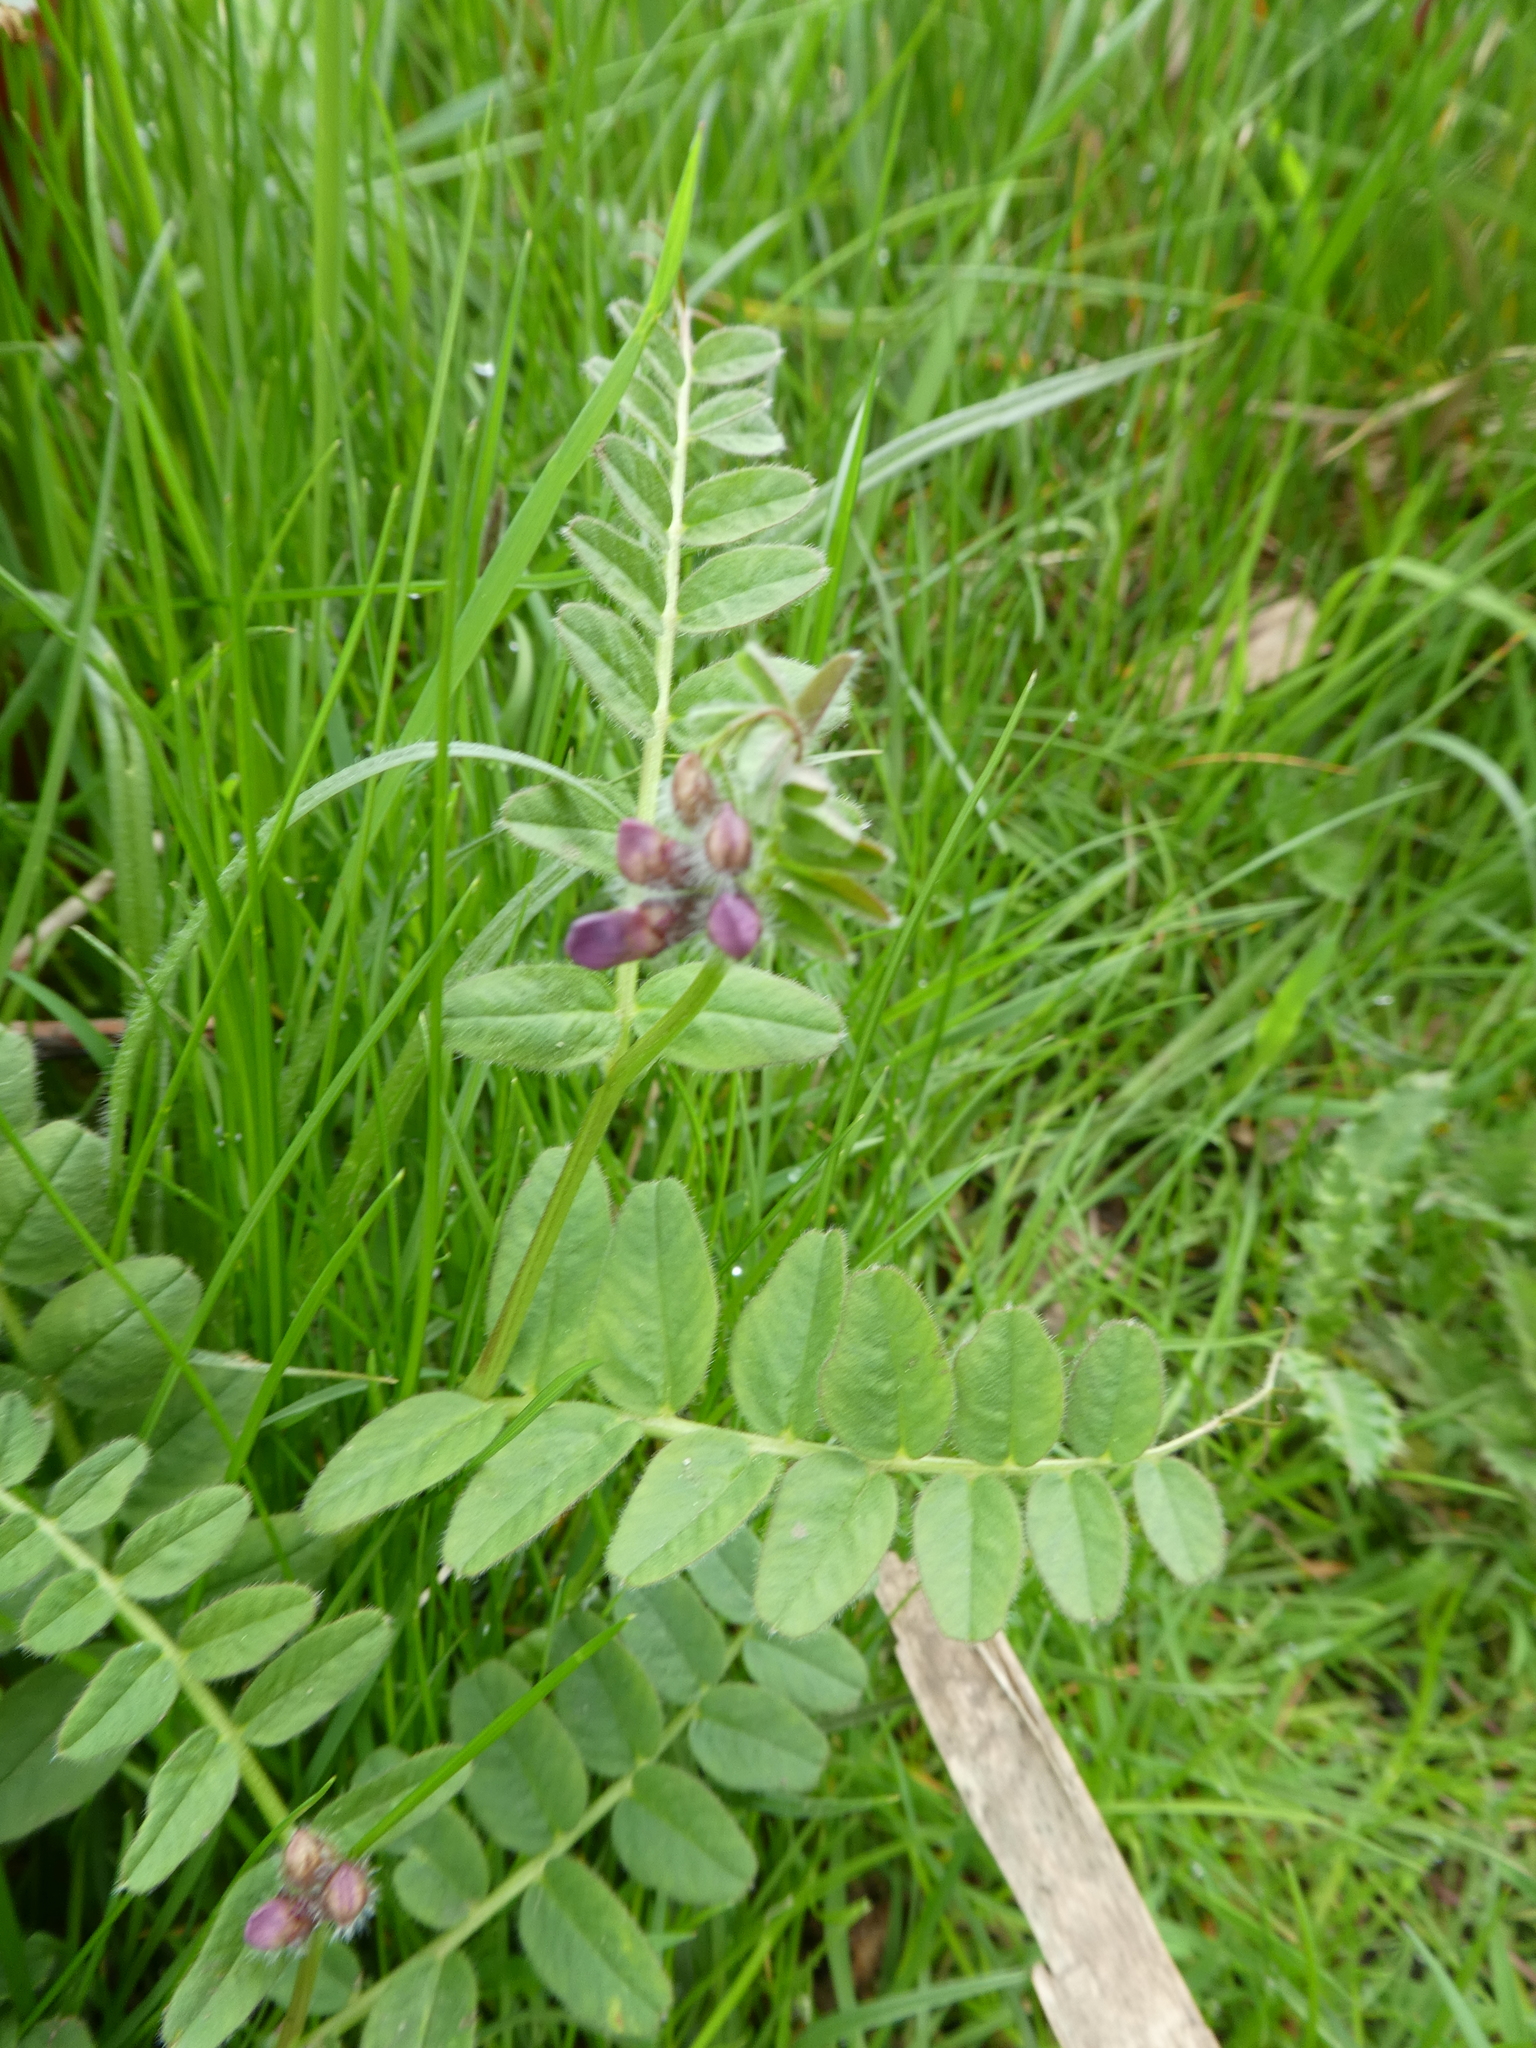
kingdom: Plantae
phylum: Tracheophyta
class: Magnoliopsida
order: Fabales
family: Fabaceae
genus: Vicia
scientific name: Vicia sepium
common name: Bush vetch
